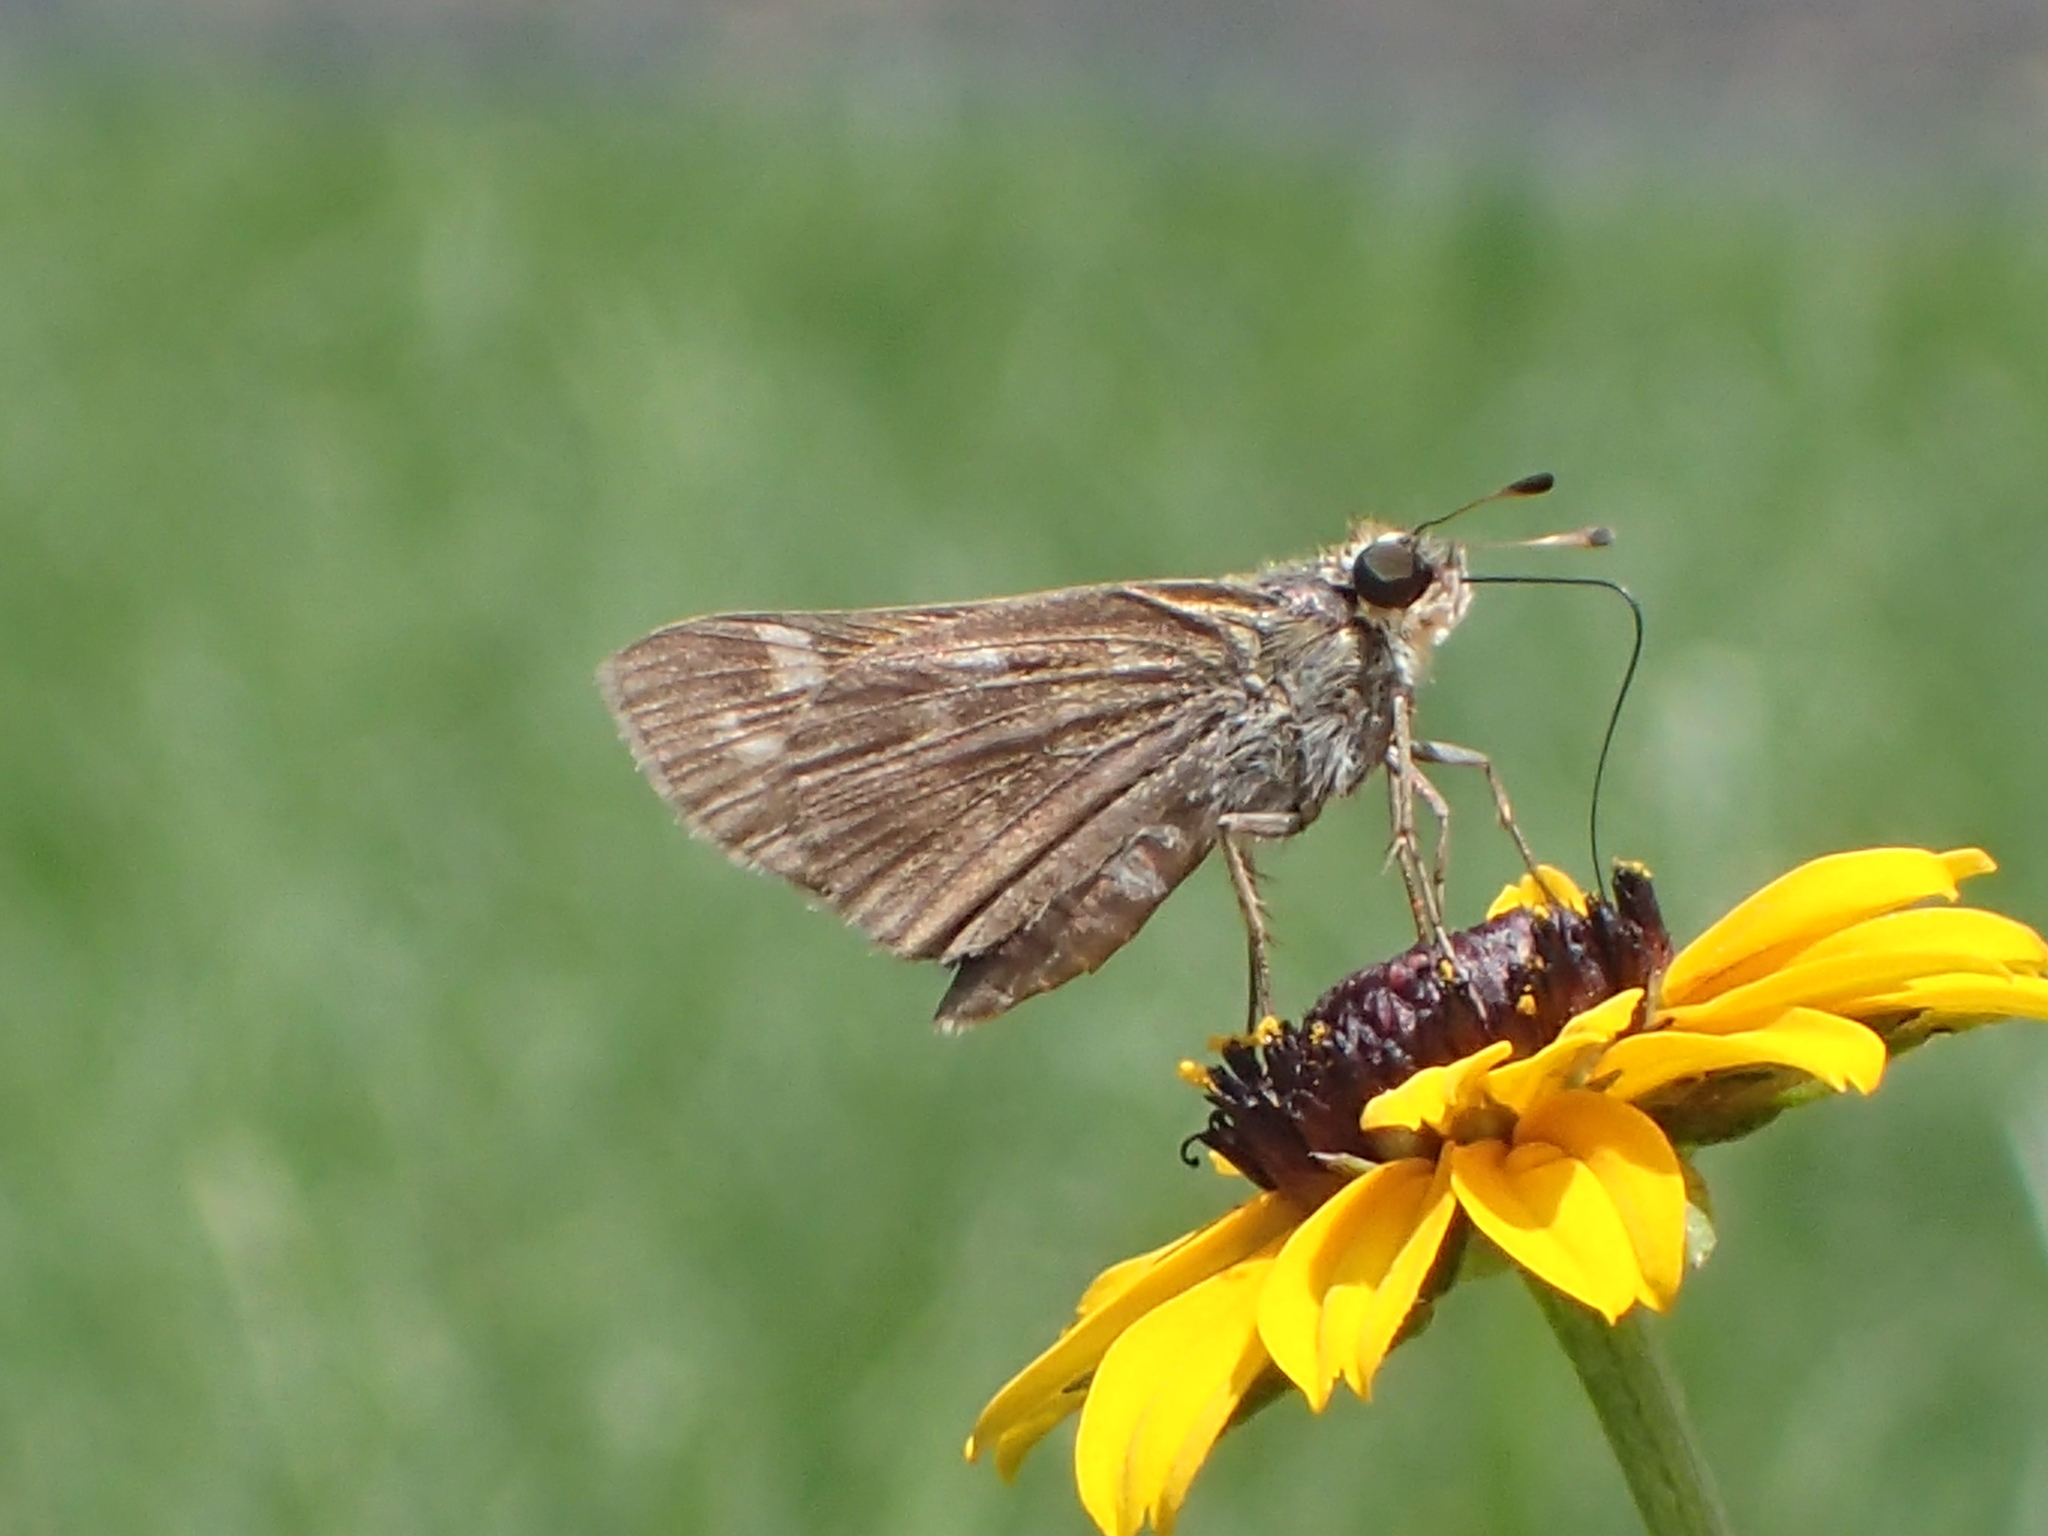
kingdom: Animalia
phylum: Arthropoda
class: Insecta
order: Lepidoptera
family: Hesperiidae
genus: Atalopedes
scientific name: Atalopedes
